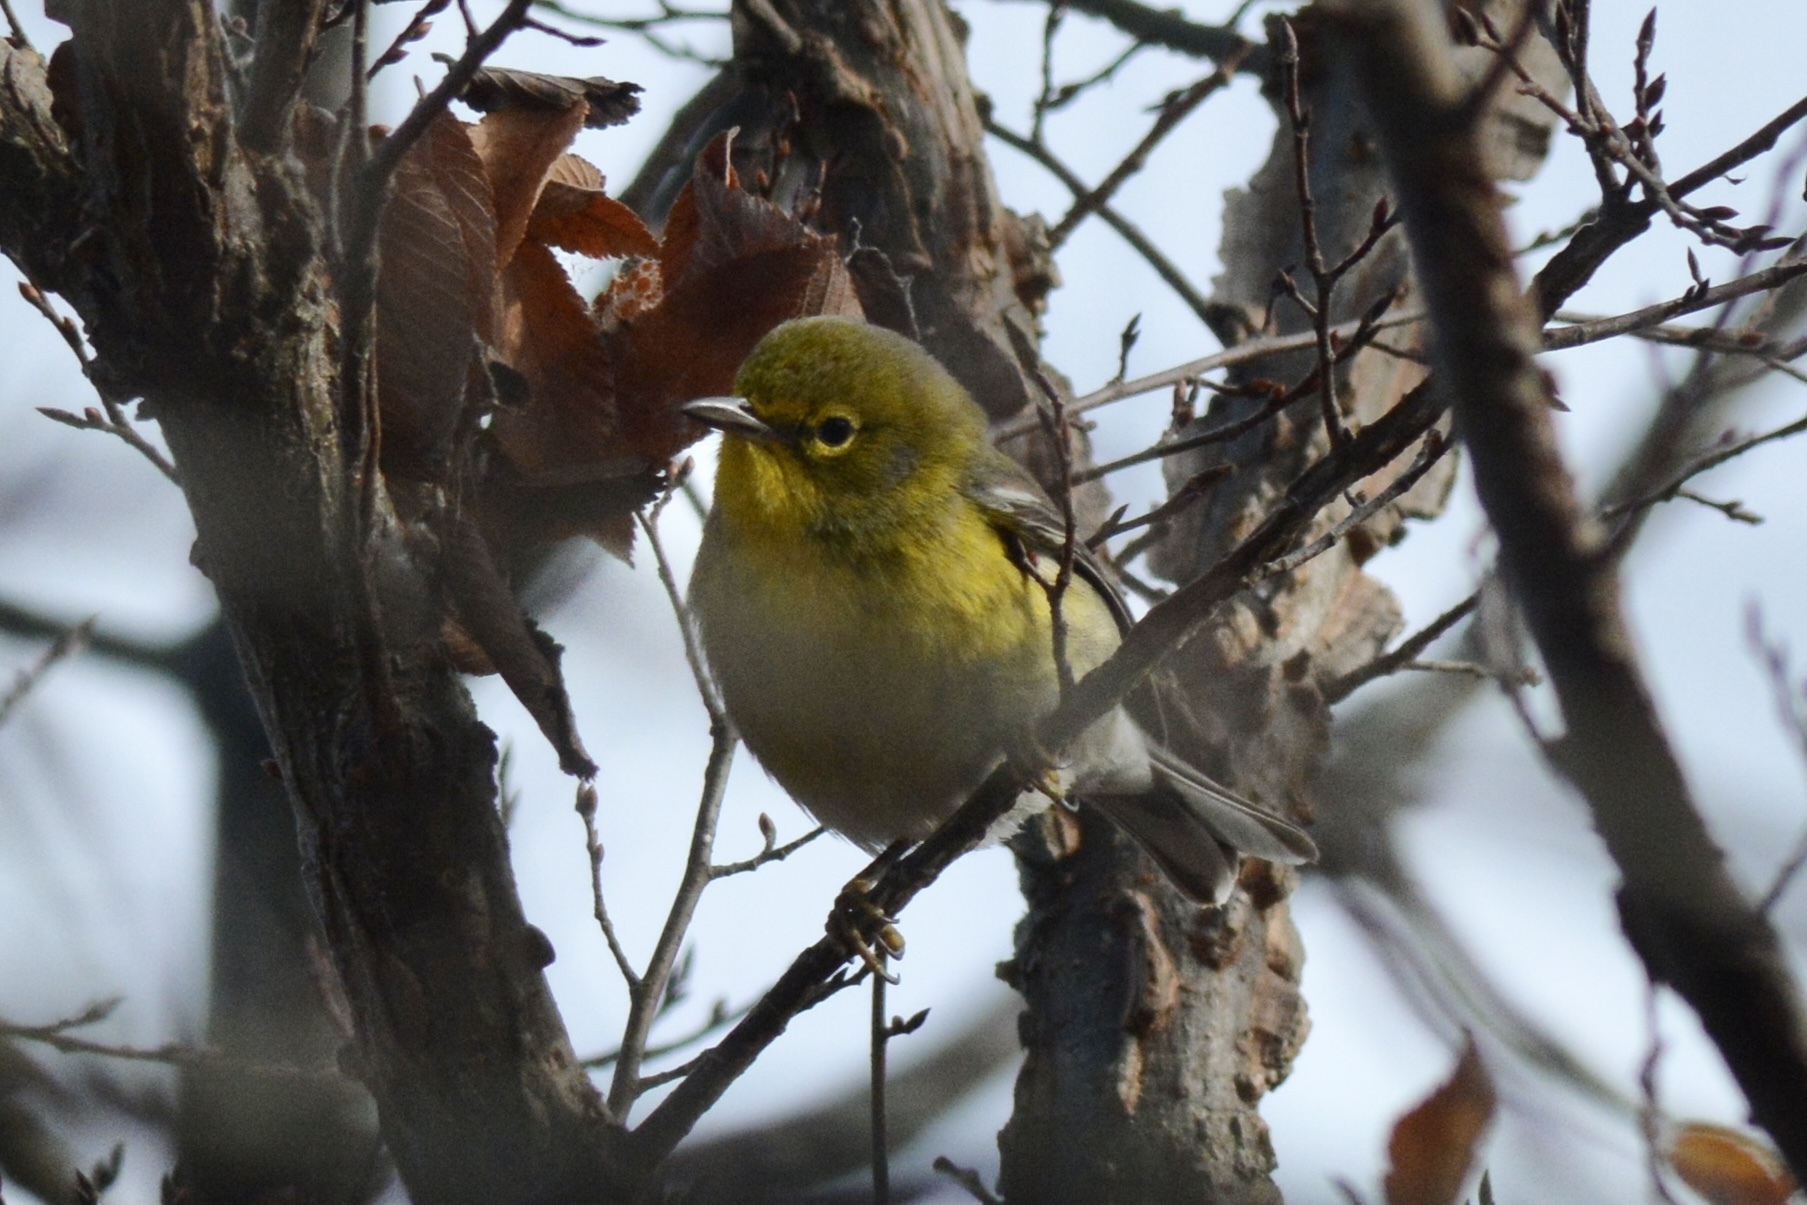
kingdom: Animalia
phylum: Chordata
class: Aves
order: Passeriformes
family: Parulidae
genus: Setophaga
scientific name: Setophaga pinus
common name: Pine warbler
